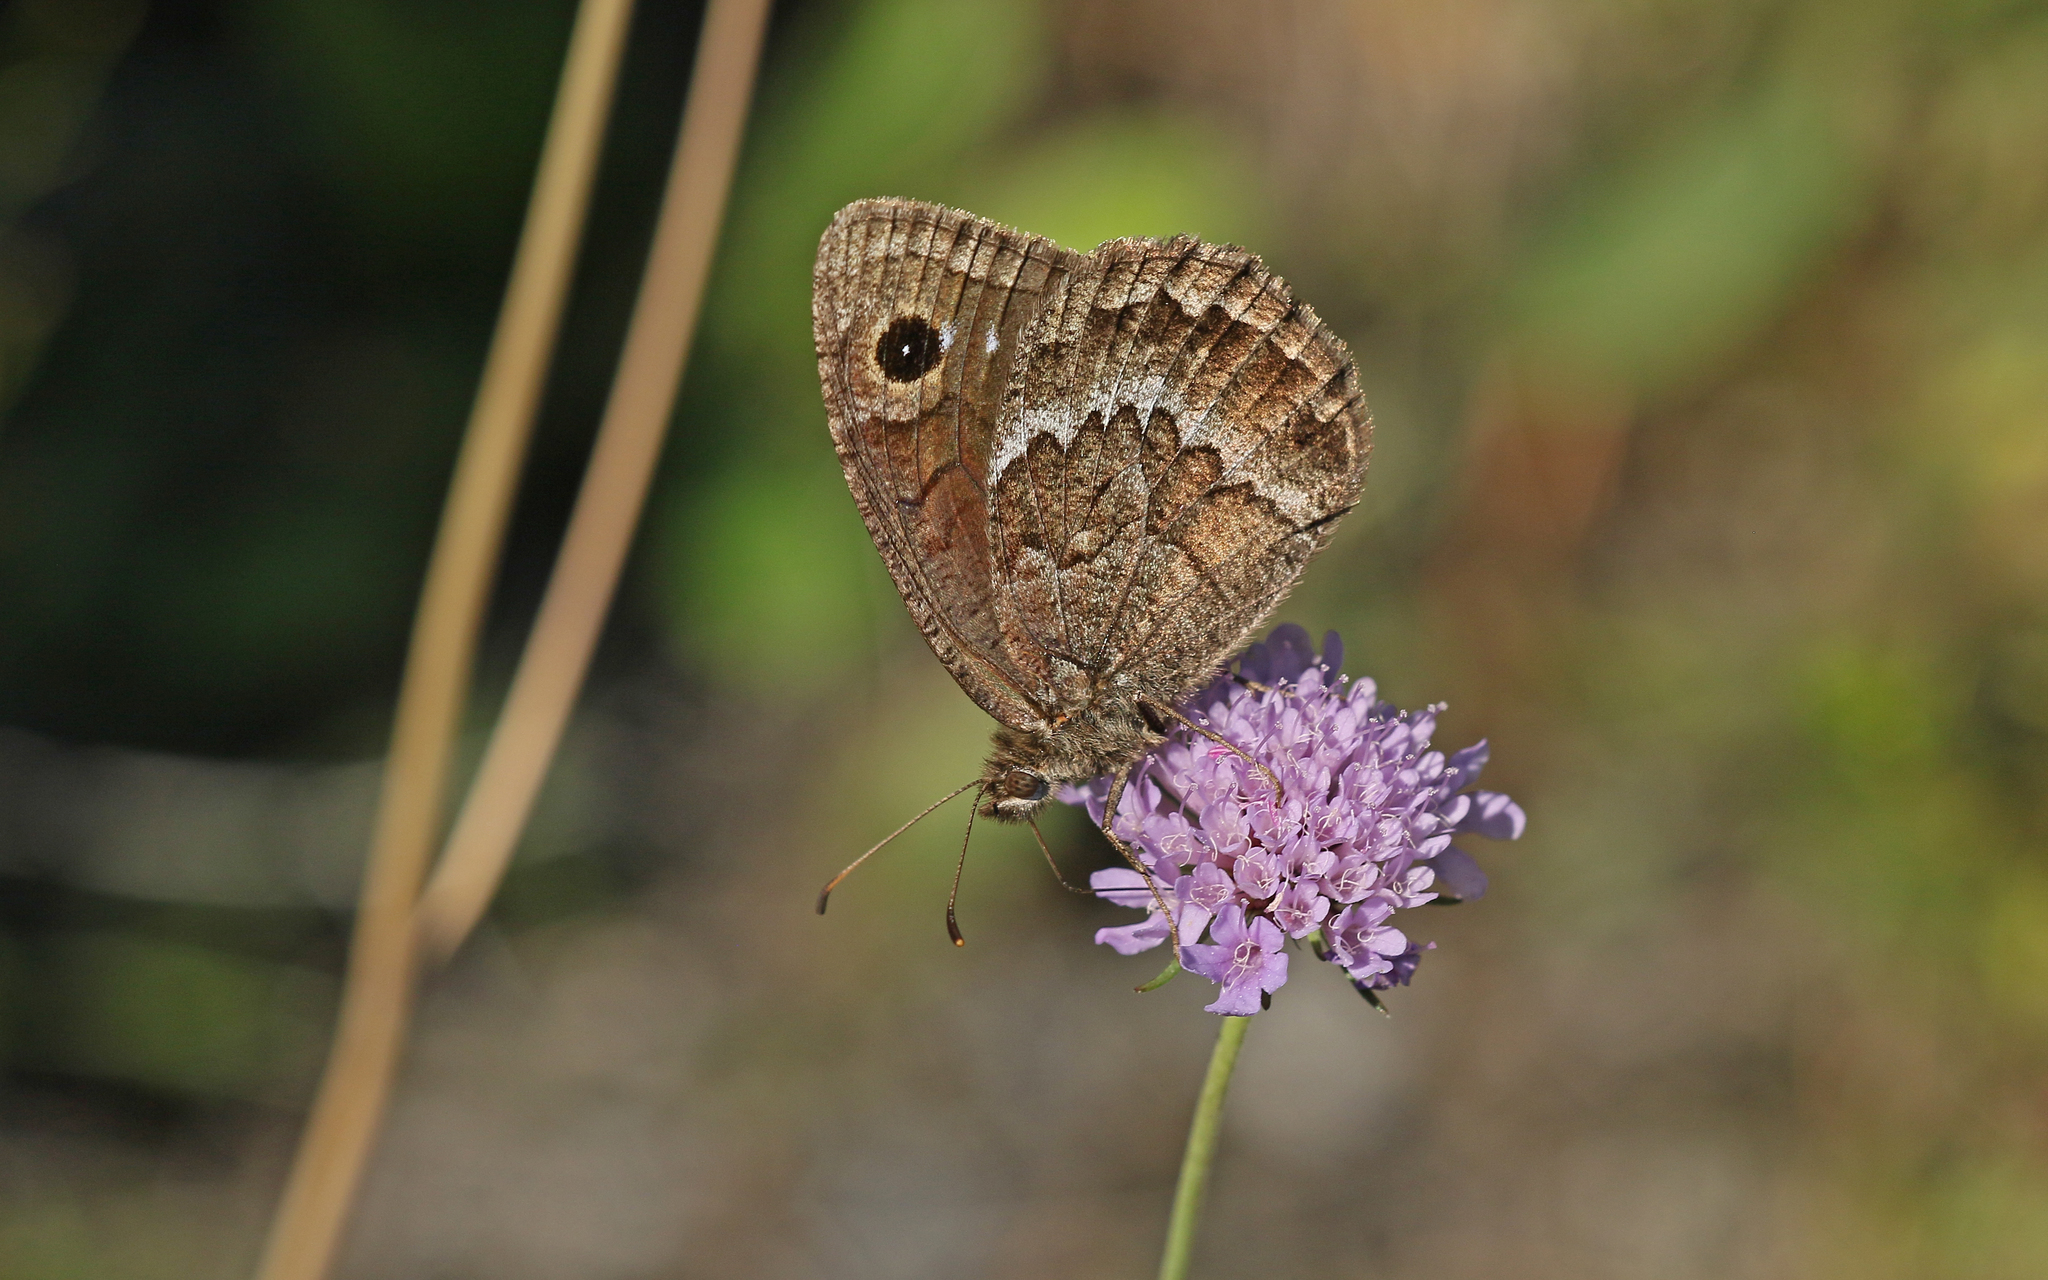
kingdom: Animalia
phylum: Arthropoda
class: Insecta
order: Lepidoptera
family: Nymphalidae
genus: Satyrus
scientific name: Satyrus actaea
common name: Black satyr
